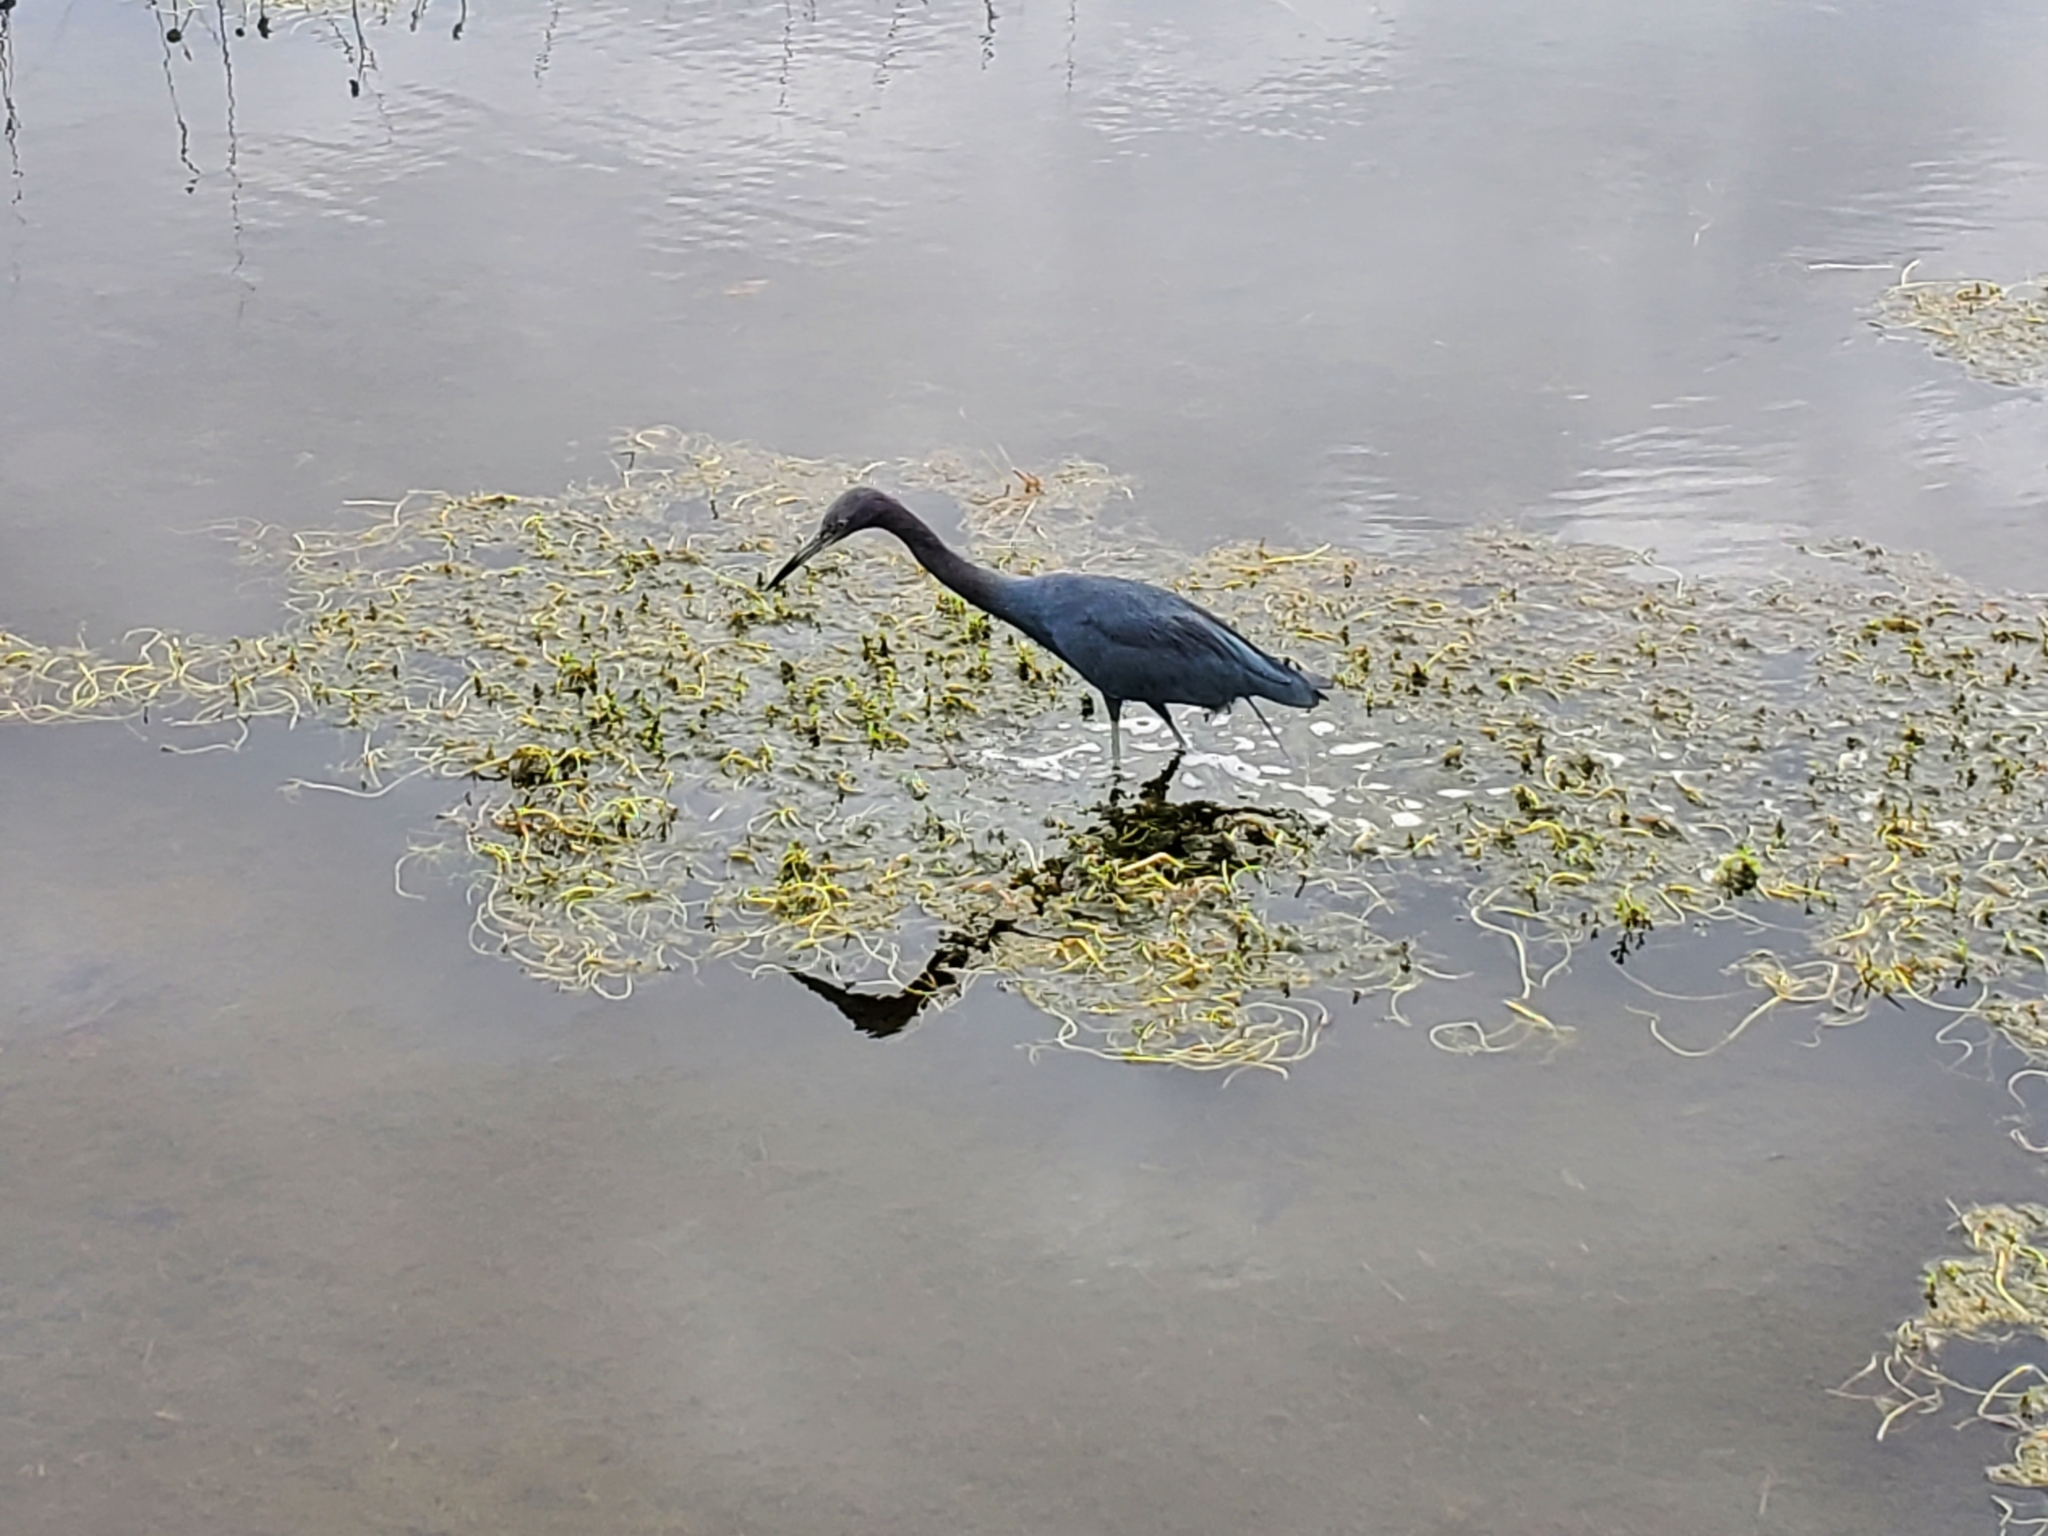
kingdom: Animalia
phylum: Chordata
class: Aves
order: Pelecaniformes
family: Ardeidae
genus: Egretta
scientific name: Egretta caerulea
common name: Little blue heron
